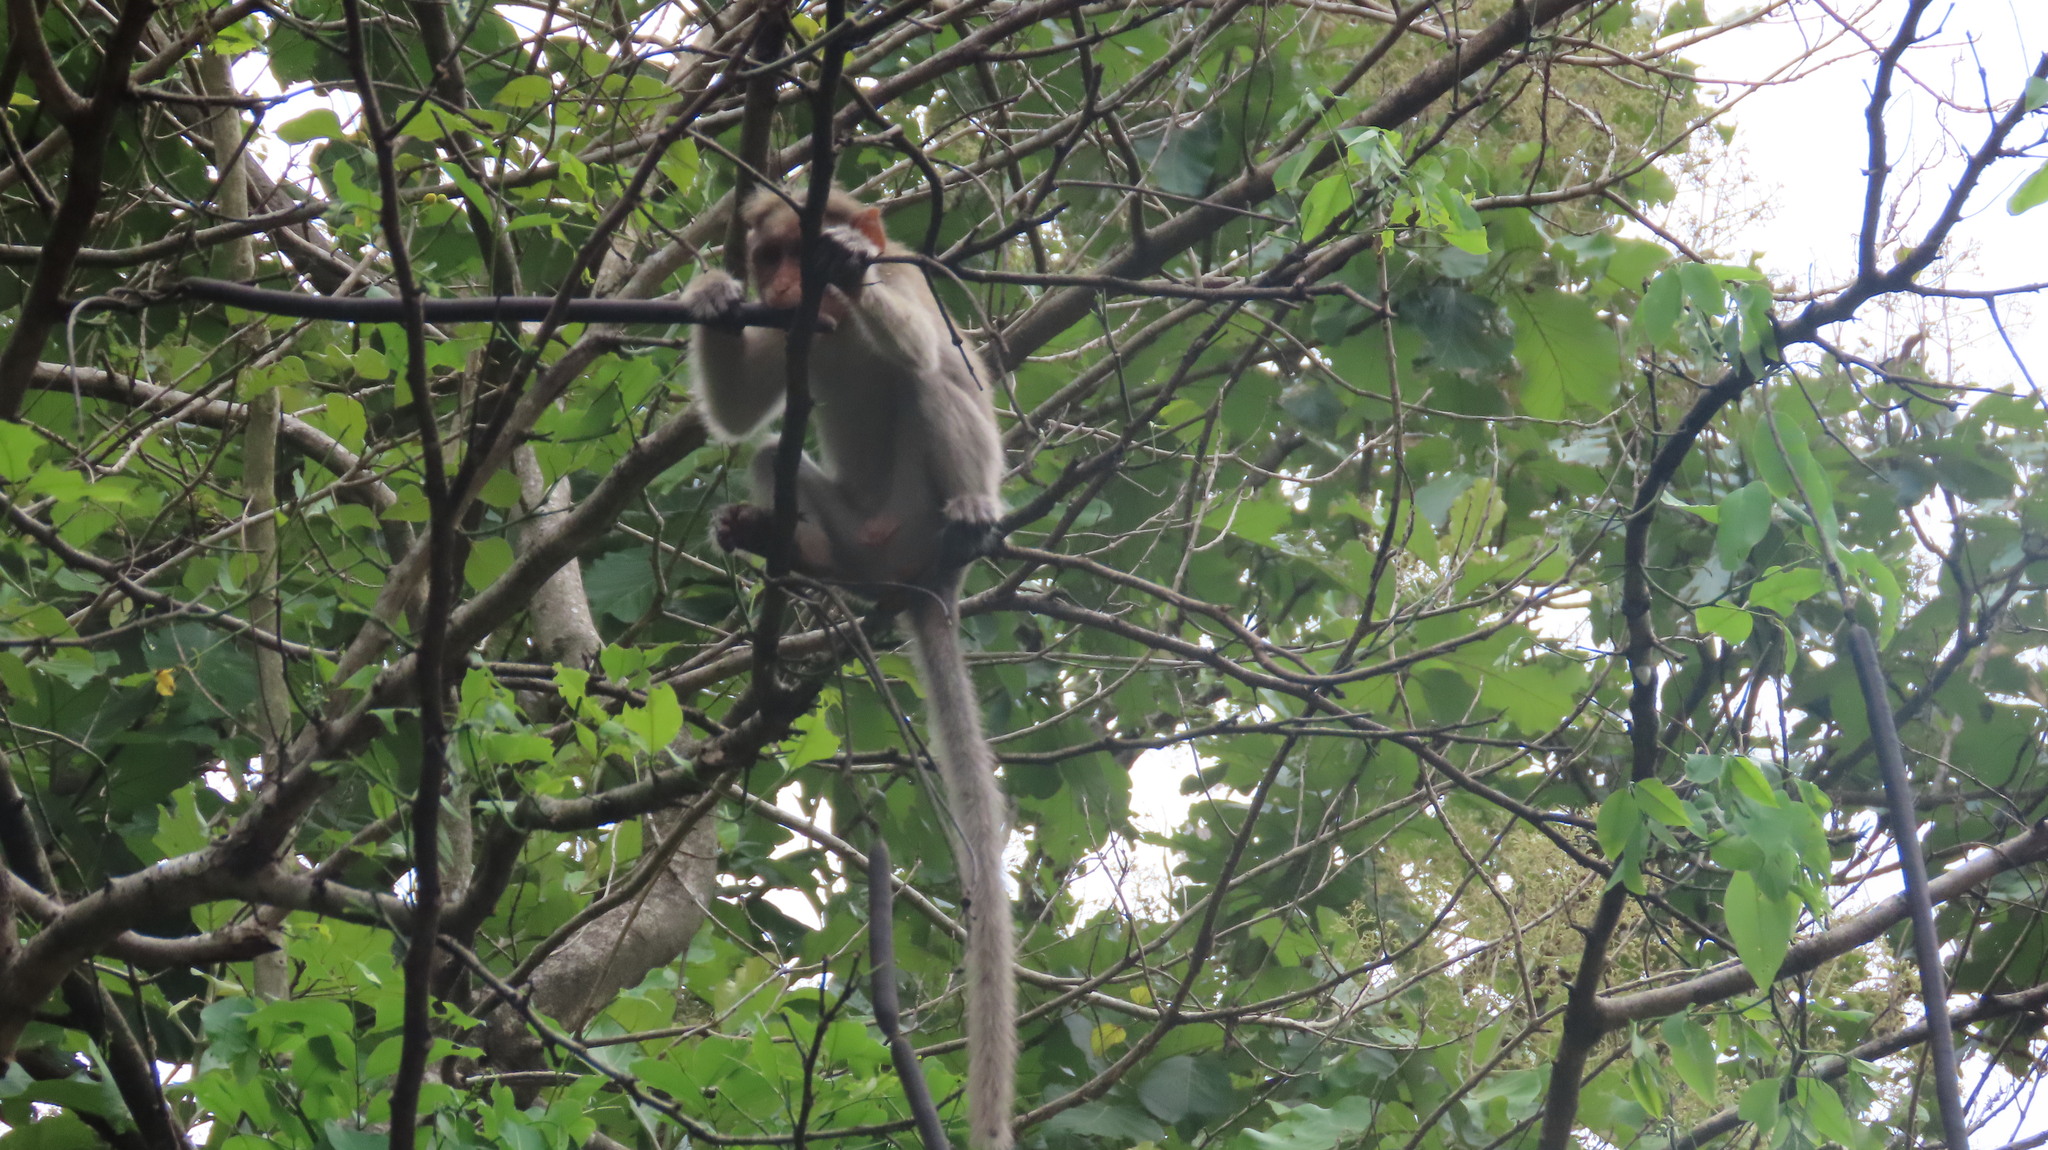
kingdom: Animalia
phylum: Chordata
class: Mammalia
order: Primates
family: Cercopithecidae
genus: Macaca
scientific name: Macaca radiata
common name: Bonnet macaque
